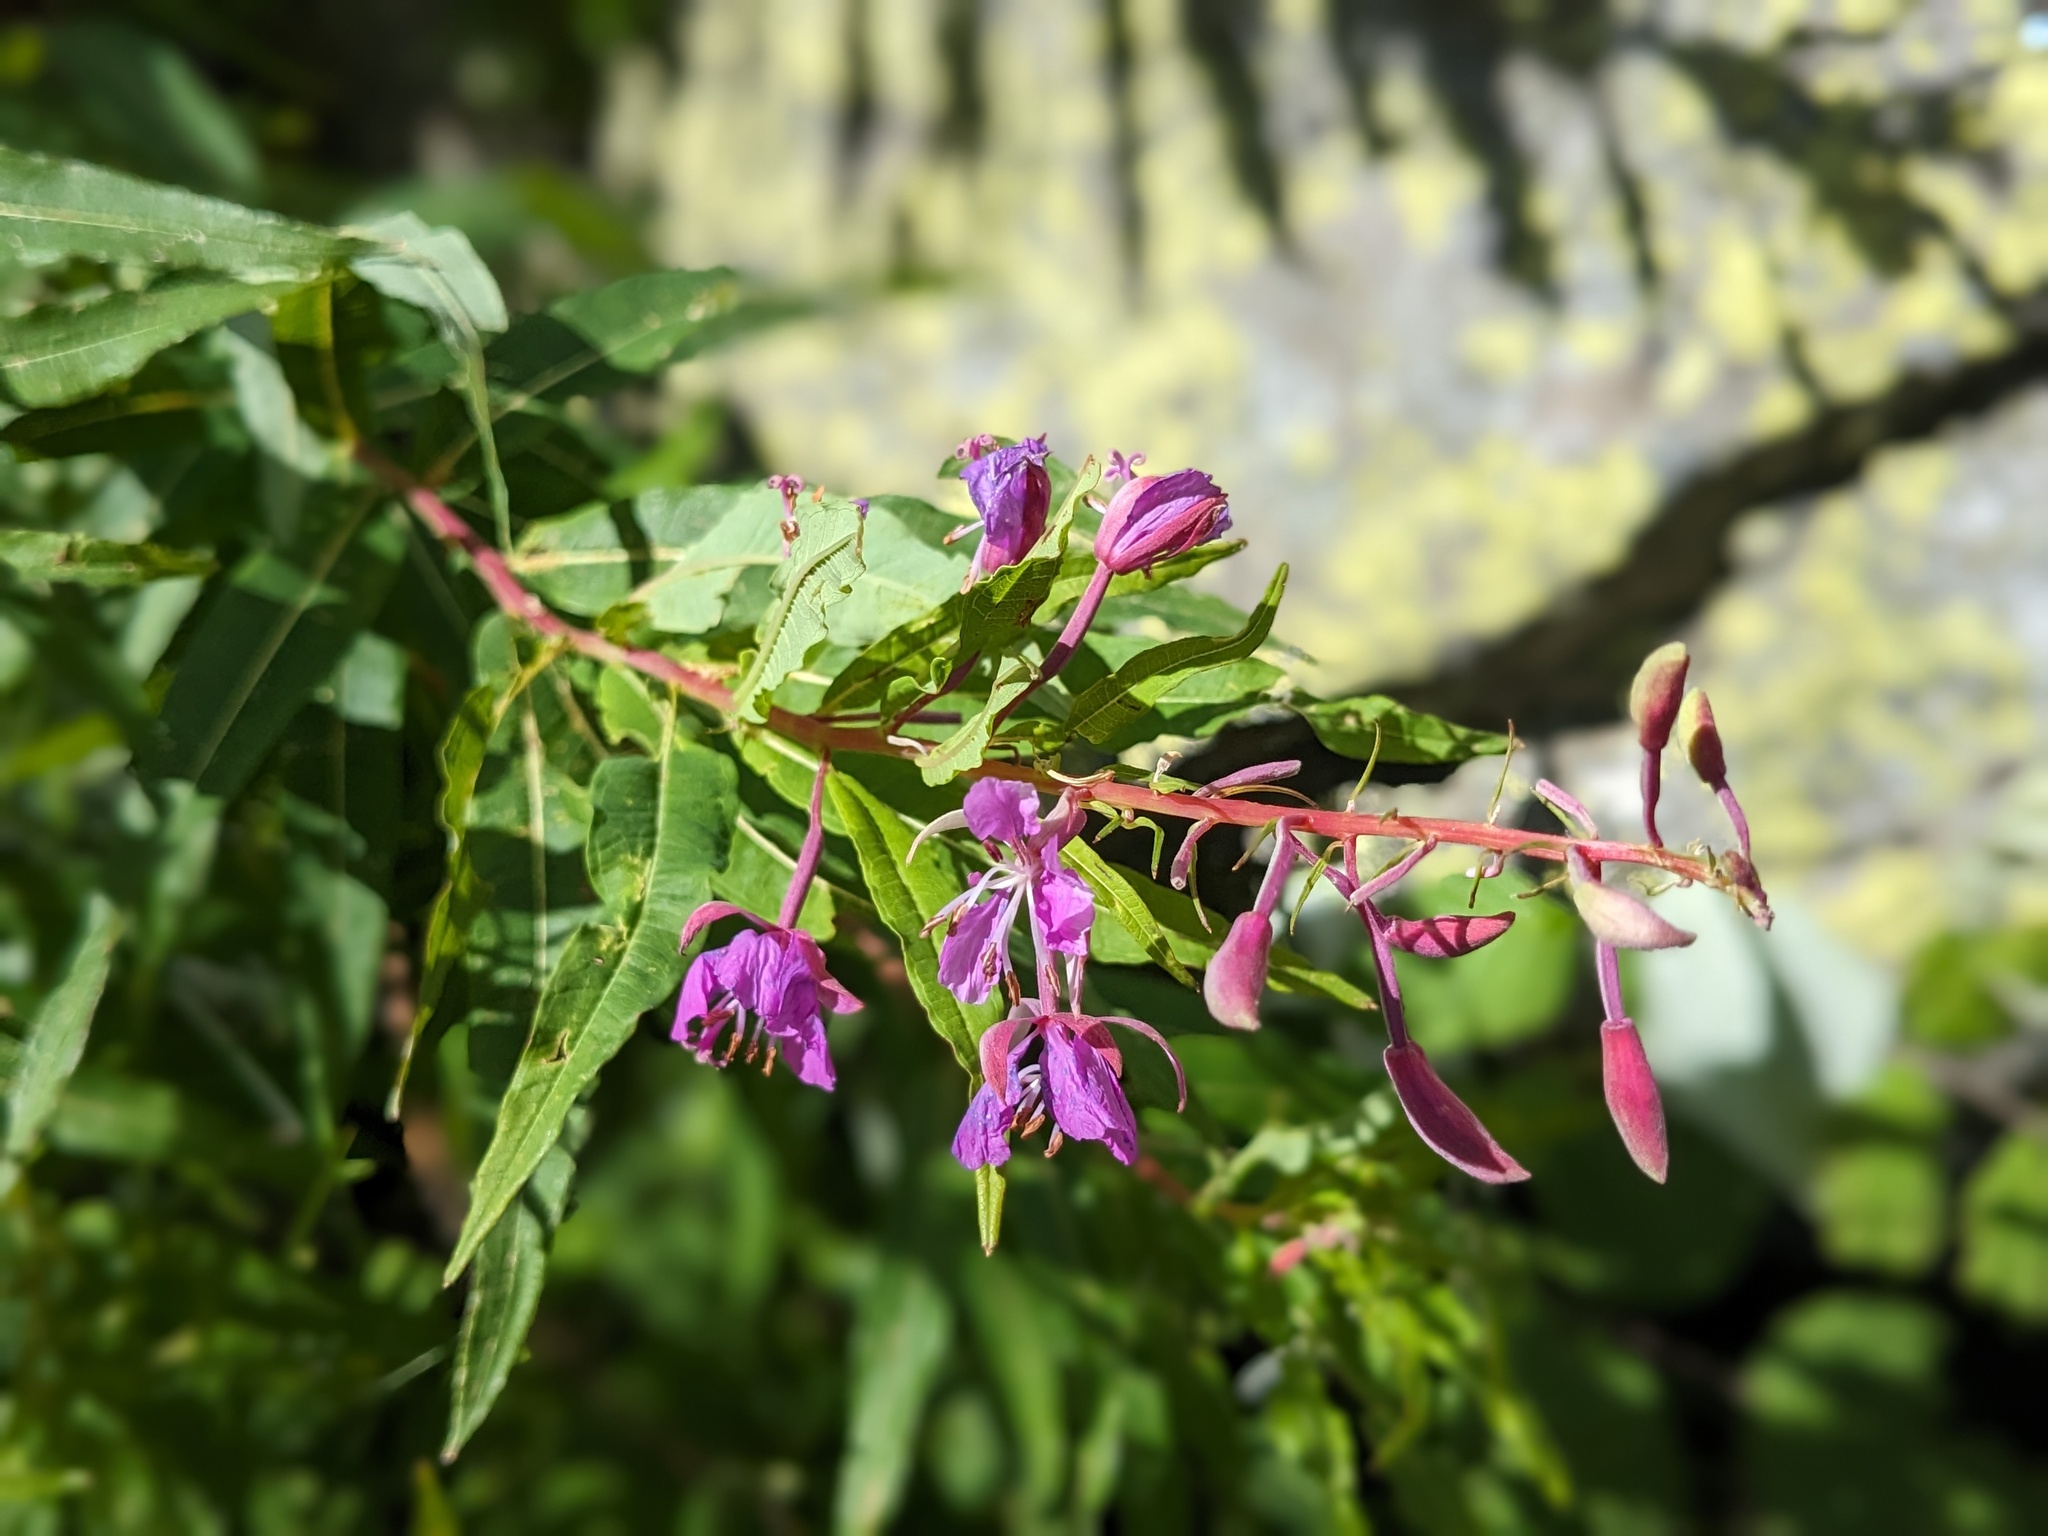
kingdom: Plantae
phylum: Tracheophyta
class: Magnoliopsida
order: Myrtales
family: Onagraceae
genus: Chamaenerion
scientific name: Chamaenerion angustifolium
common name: Fireweed
